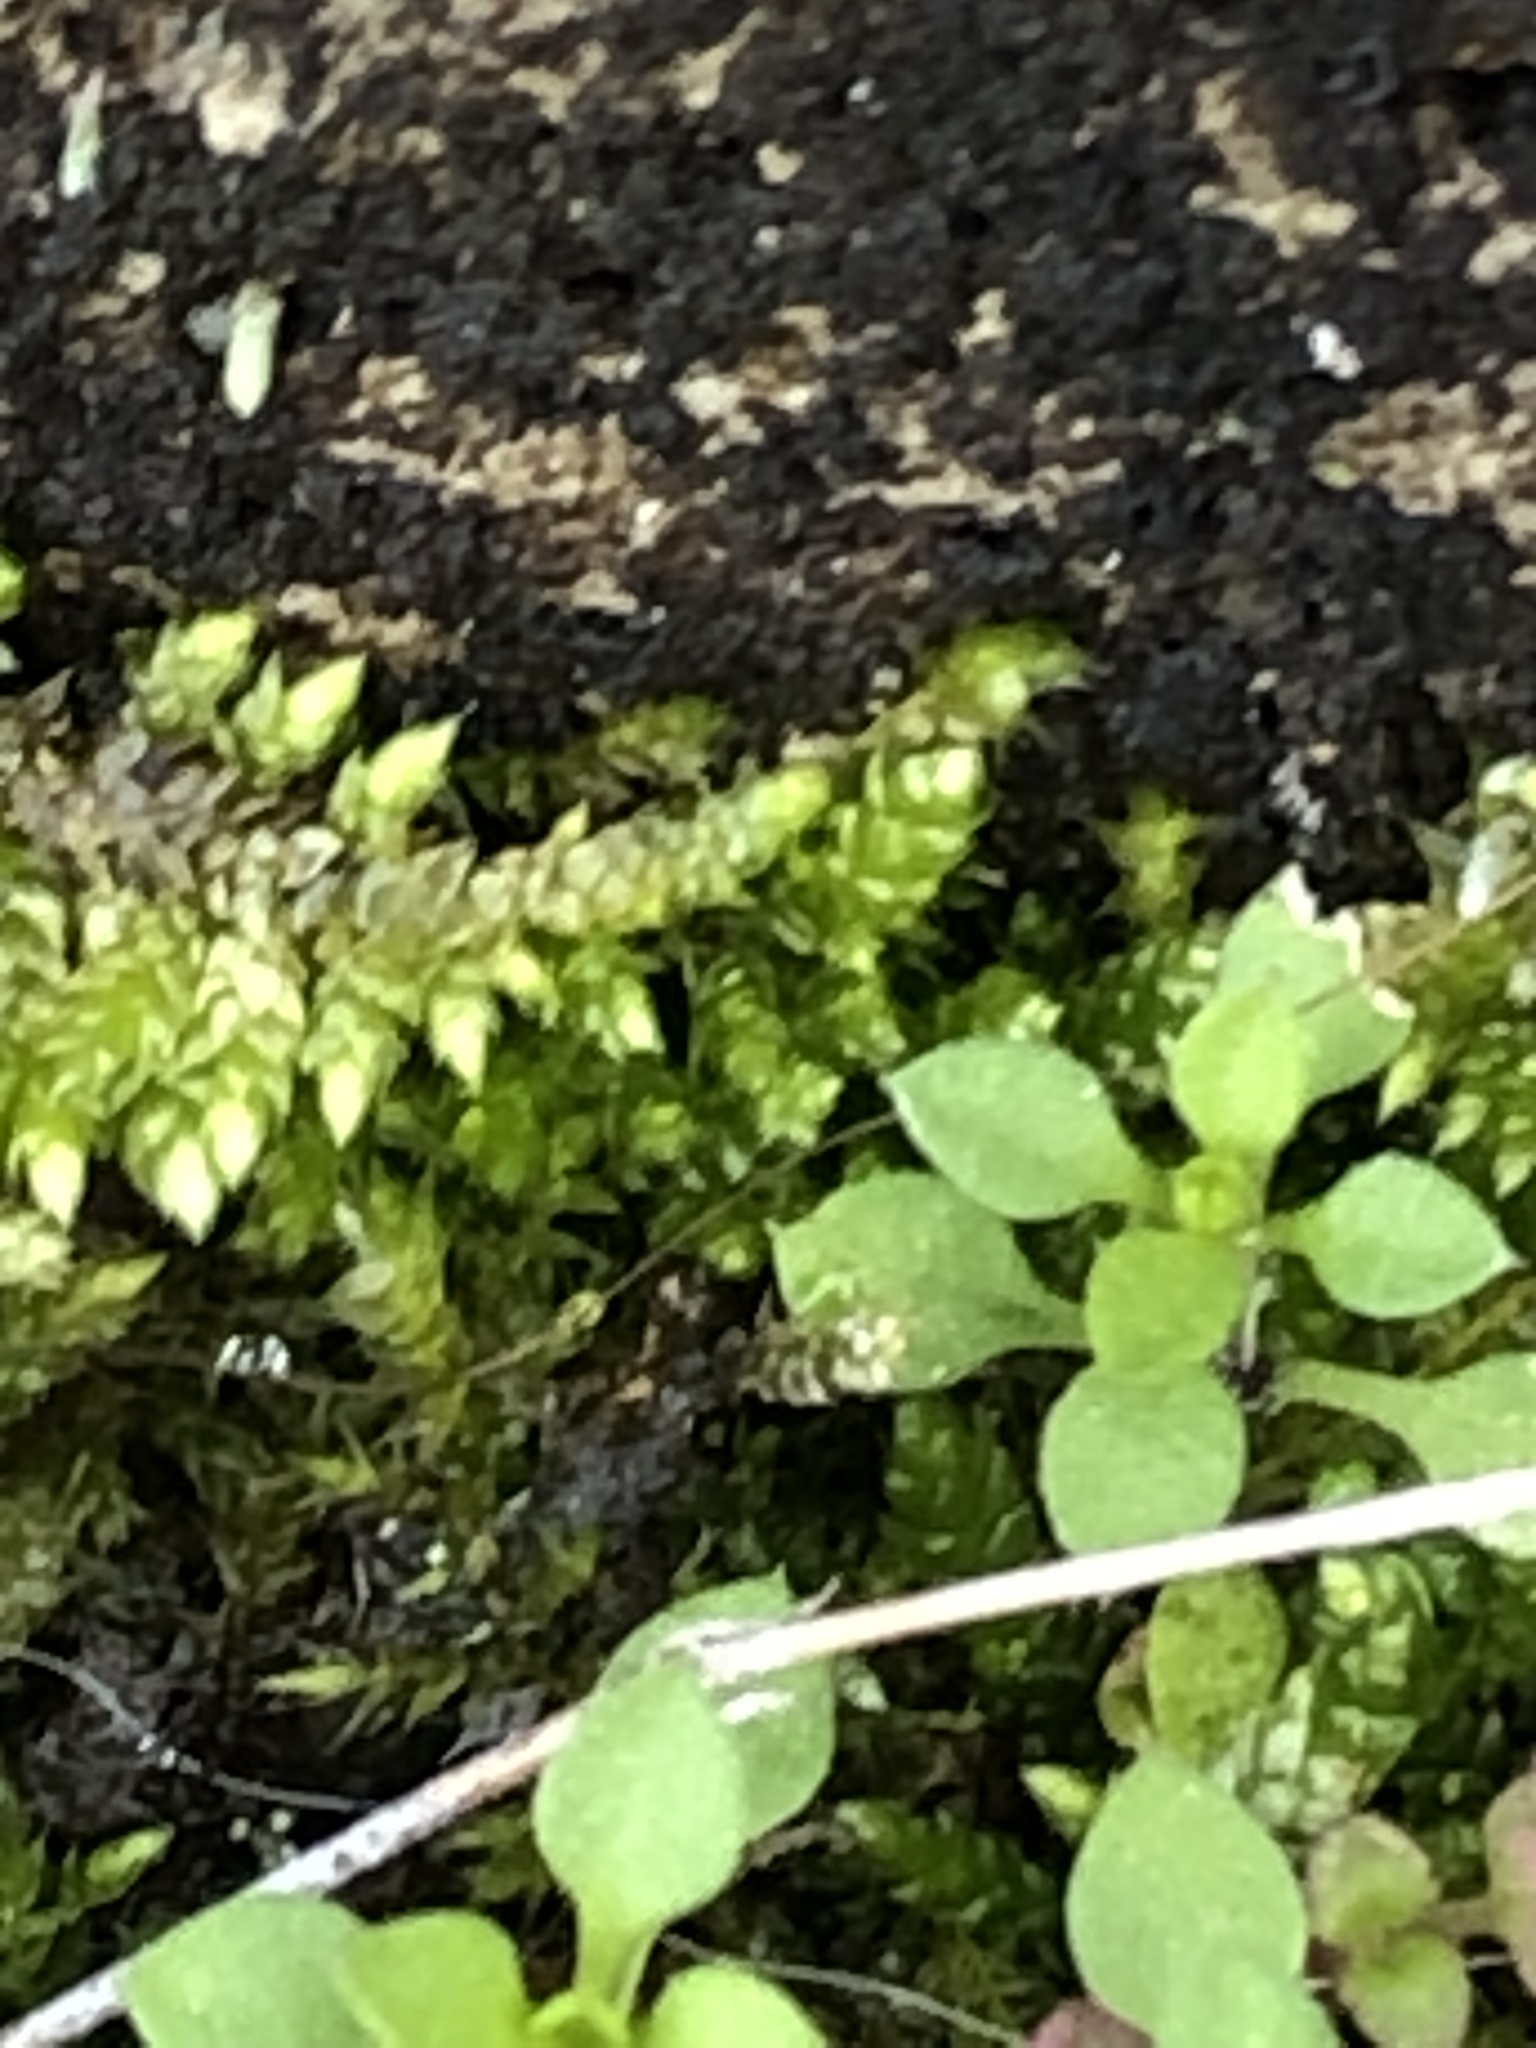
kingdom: Plantae
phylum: Bryophyta
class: Bryopsida
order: Hypnales
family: Callicladiaceae
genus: Callicladium
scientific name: Callicladium imponens
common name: Brocade moss
